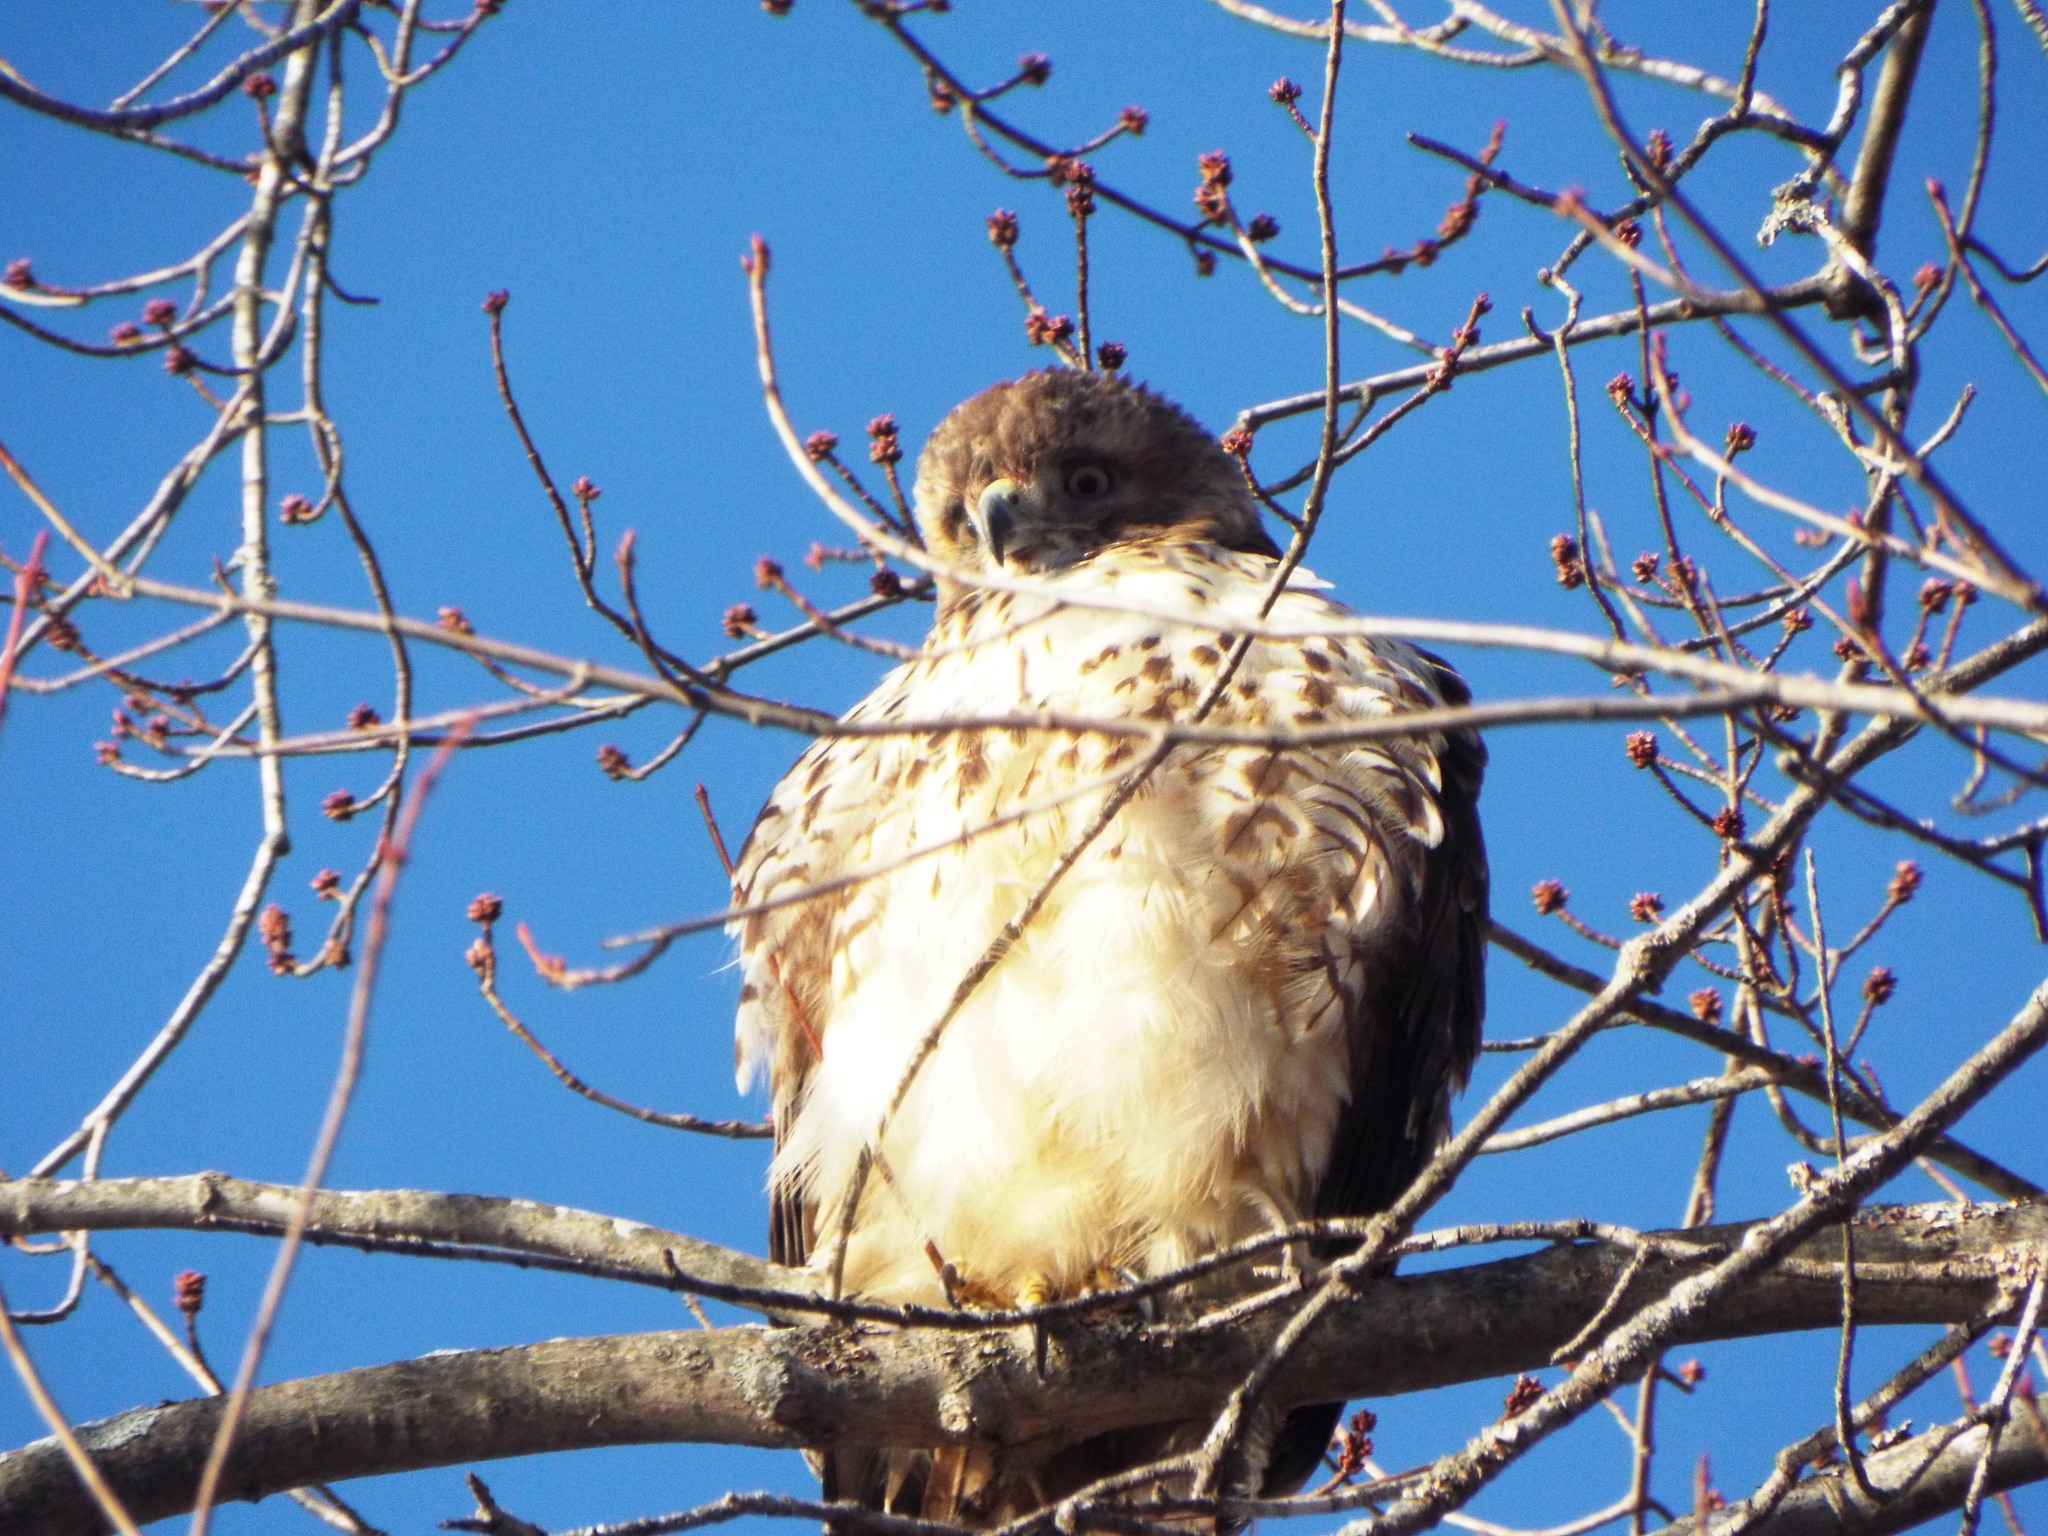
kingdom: Animalia
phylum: Chordata
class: Aves
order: Accipitriformes
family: Accipitridae
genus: Buteo
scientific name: Buteo jamaicensis
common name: Red-tailed hawk
